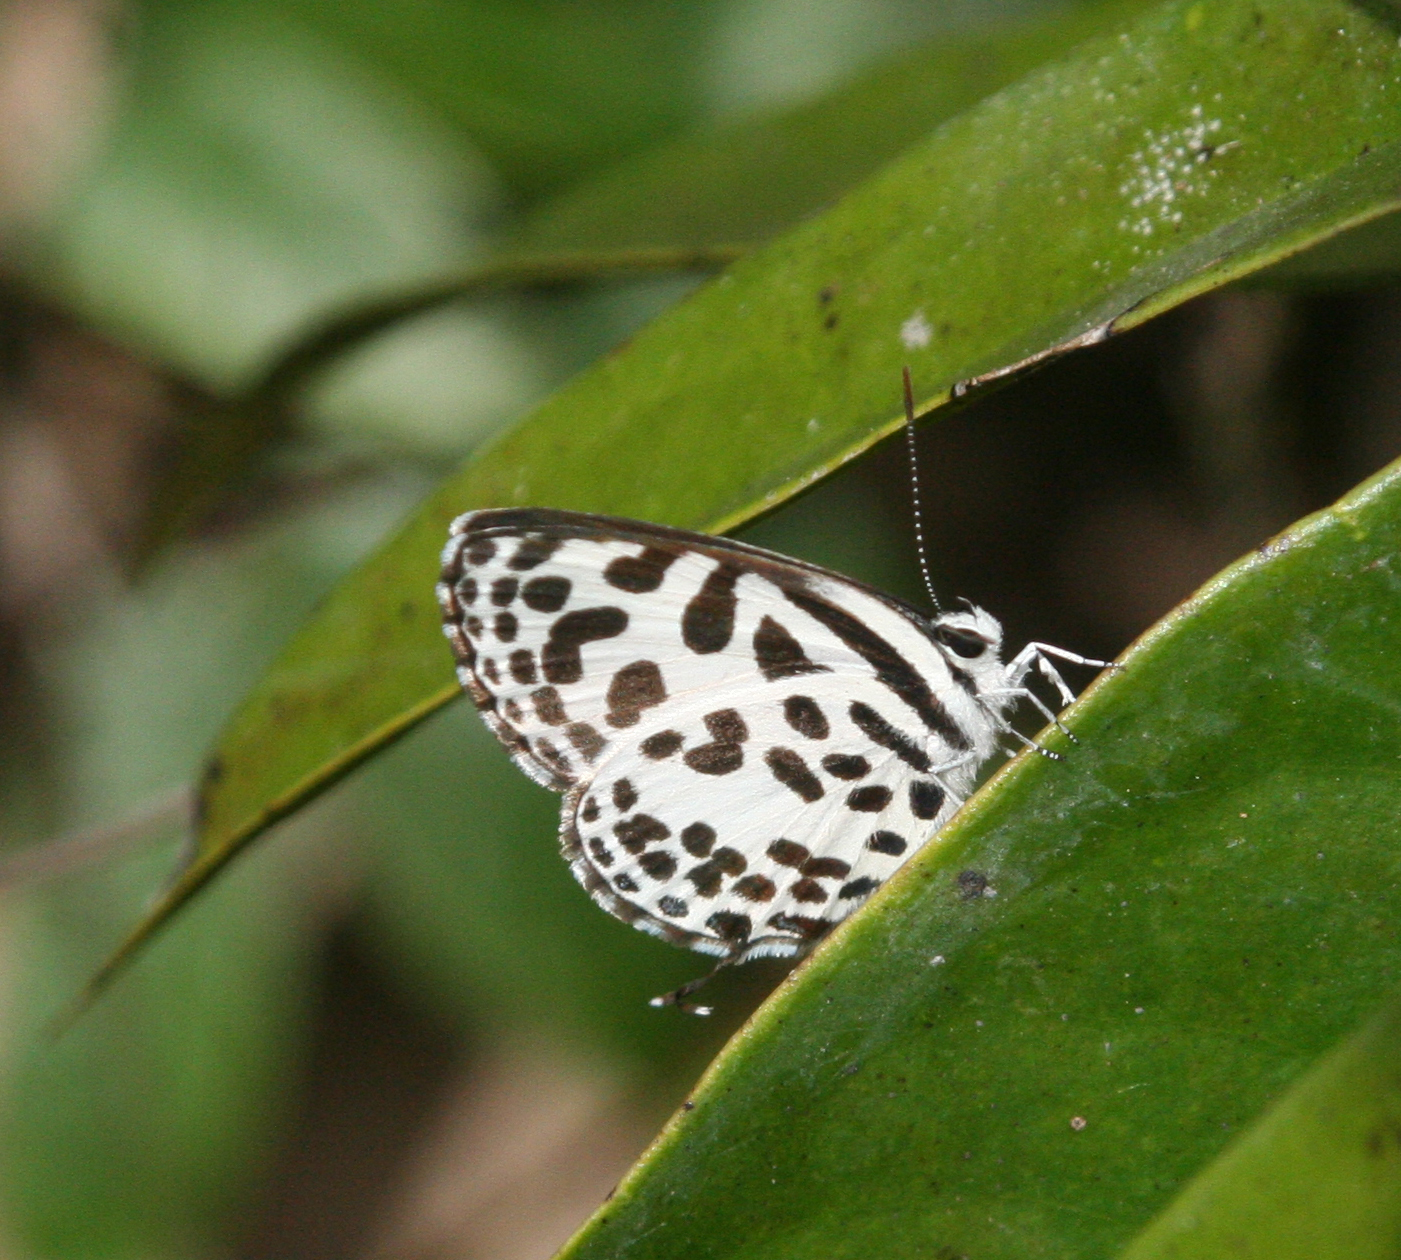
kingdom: Animalia
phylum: Arthropoda
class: Insecta
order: Lepidoptera
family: Lycaenidae
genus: Castalius
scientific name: Castalius rosimon
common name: Common pierrot
